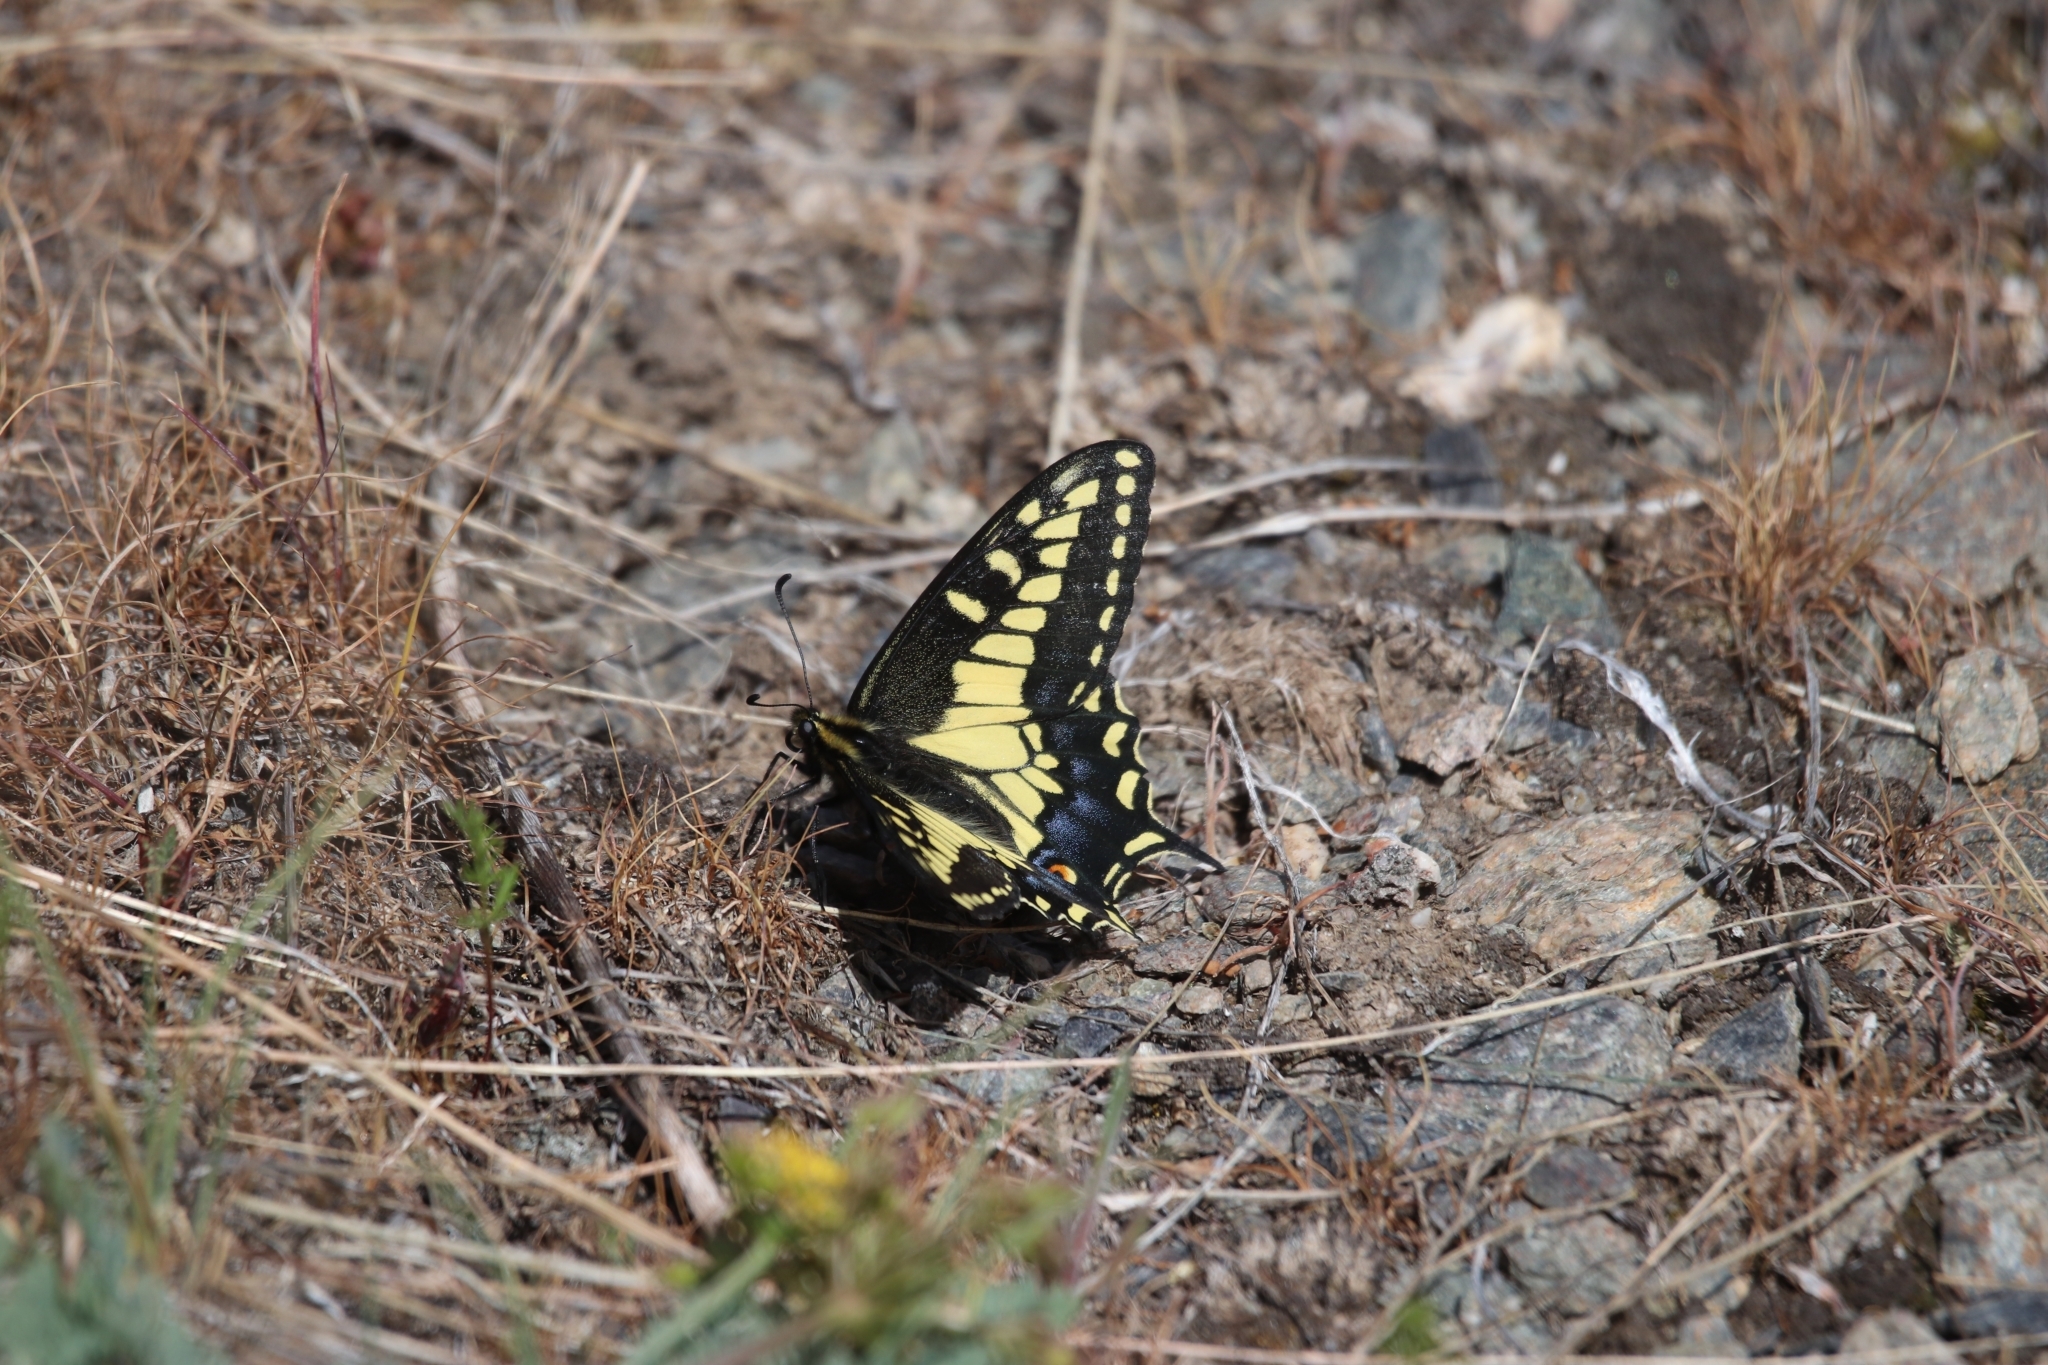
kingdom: Animalia
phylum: Arthropoda
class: Insecta
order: Lepidoptera
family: Papilionidae
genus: Papilio
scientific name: Papilio zelicaon
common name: Anise swallowtail
